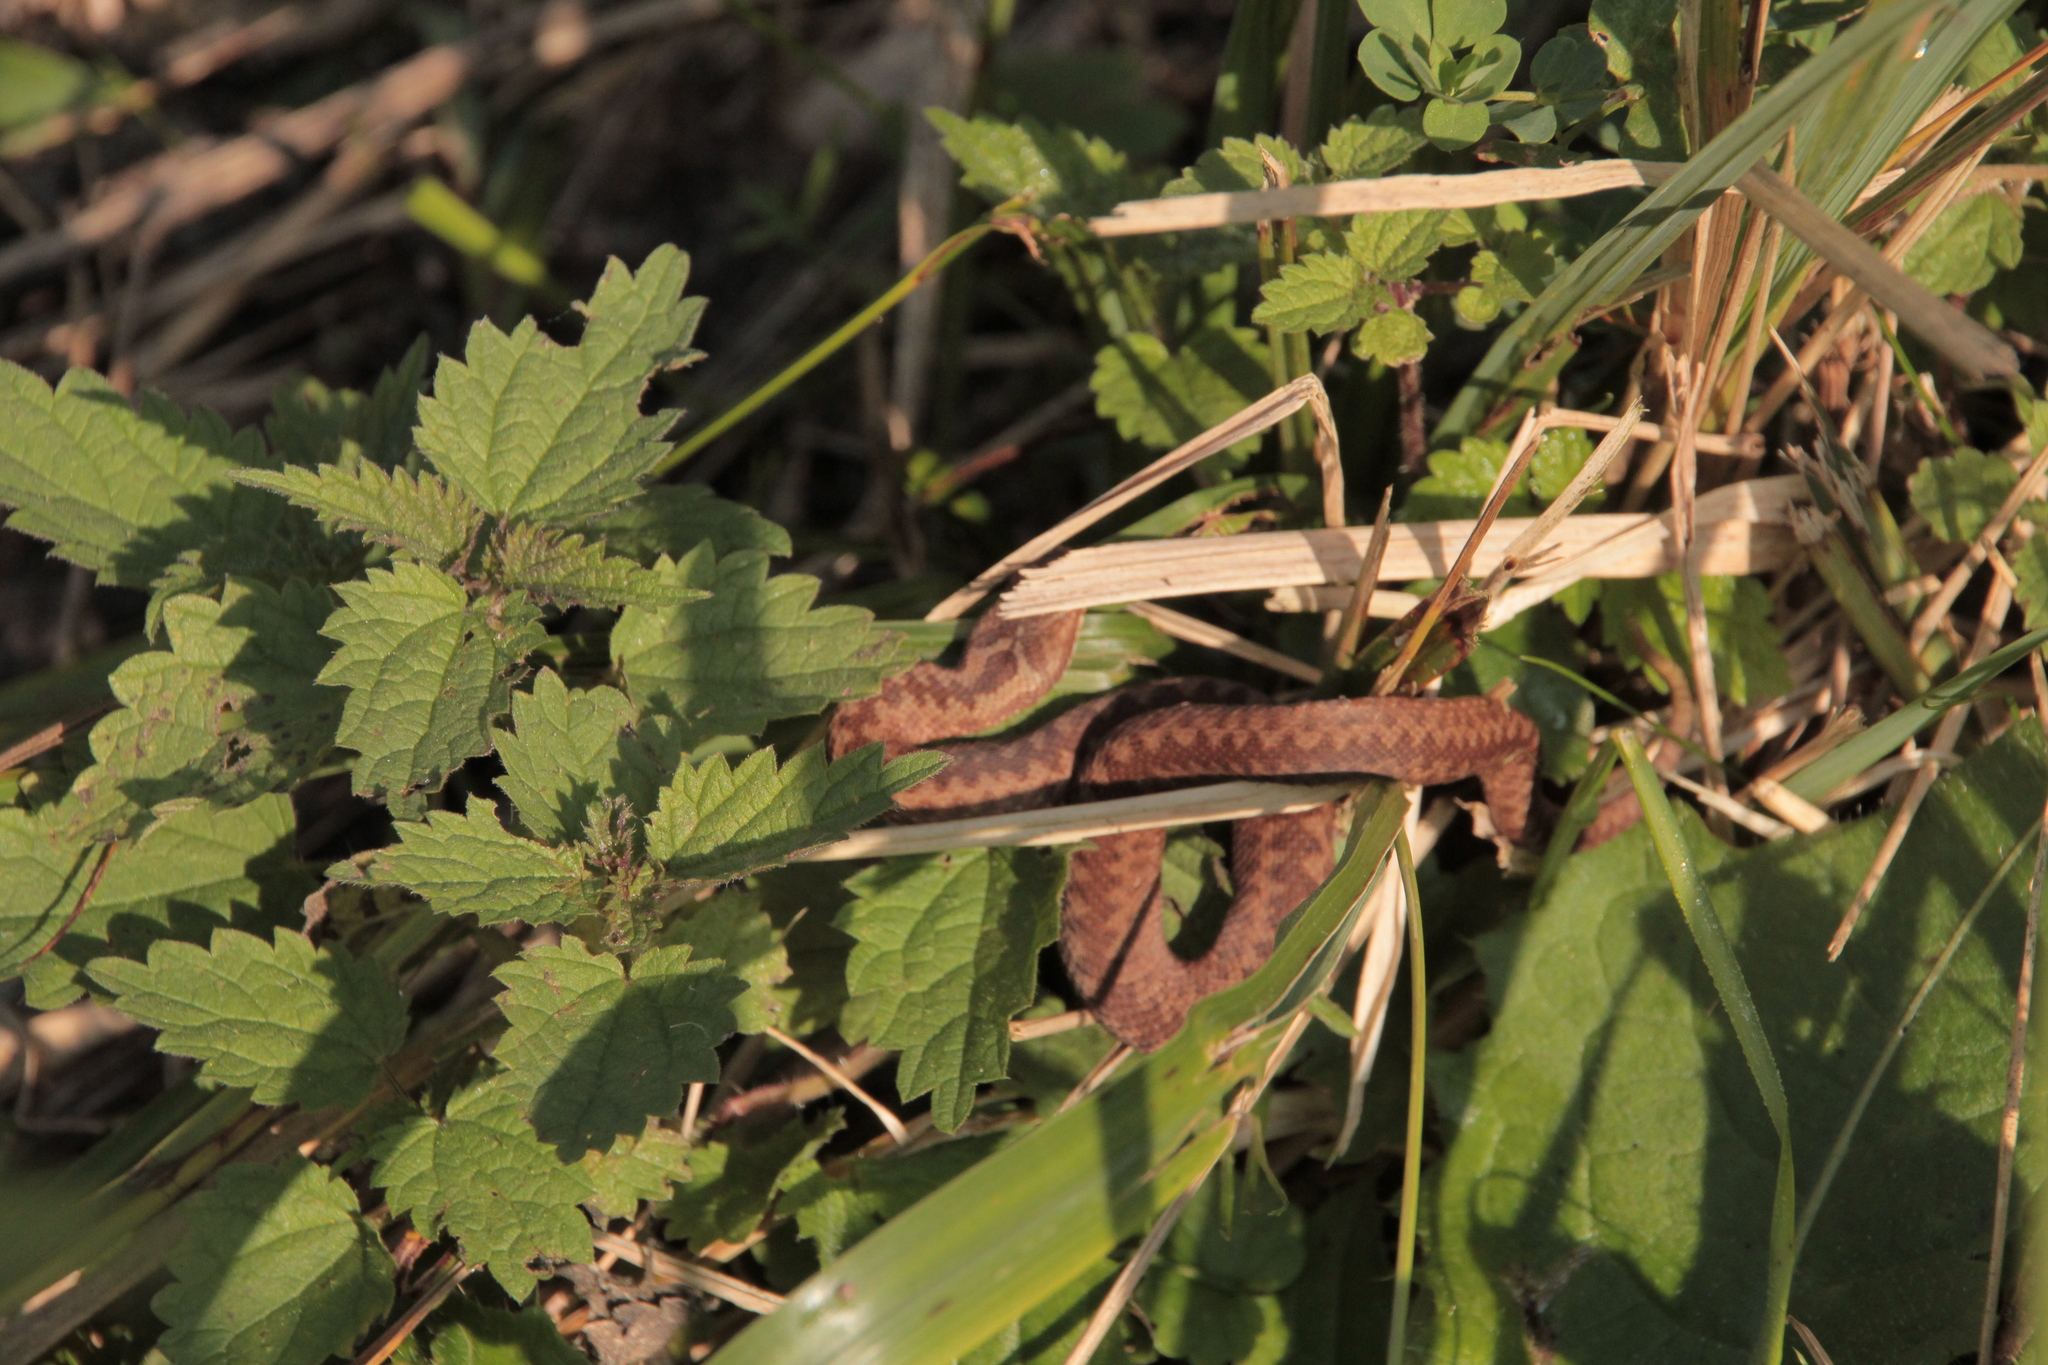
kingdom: Animalia
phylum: Chordata
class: Squamata
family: Viperidae
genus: Vipera
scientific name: Vipera berus
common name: Adder
